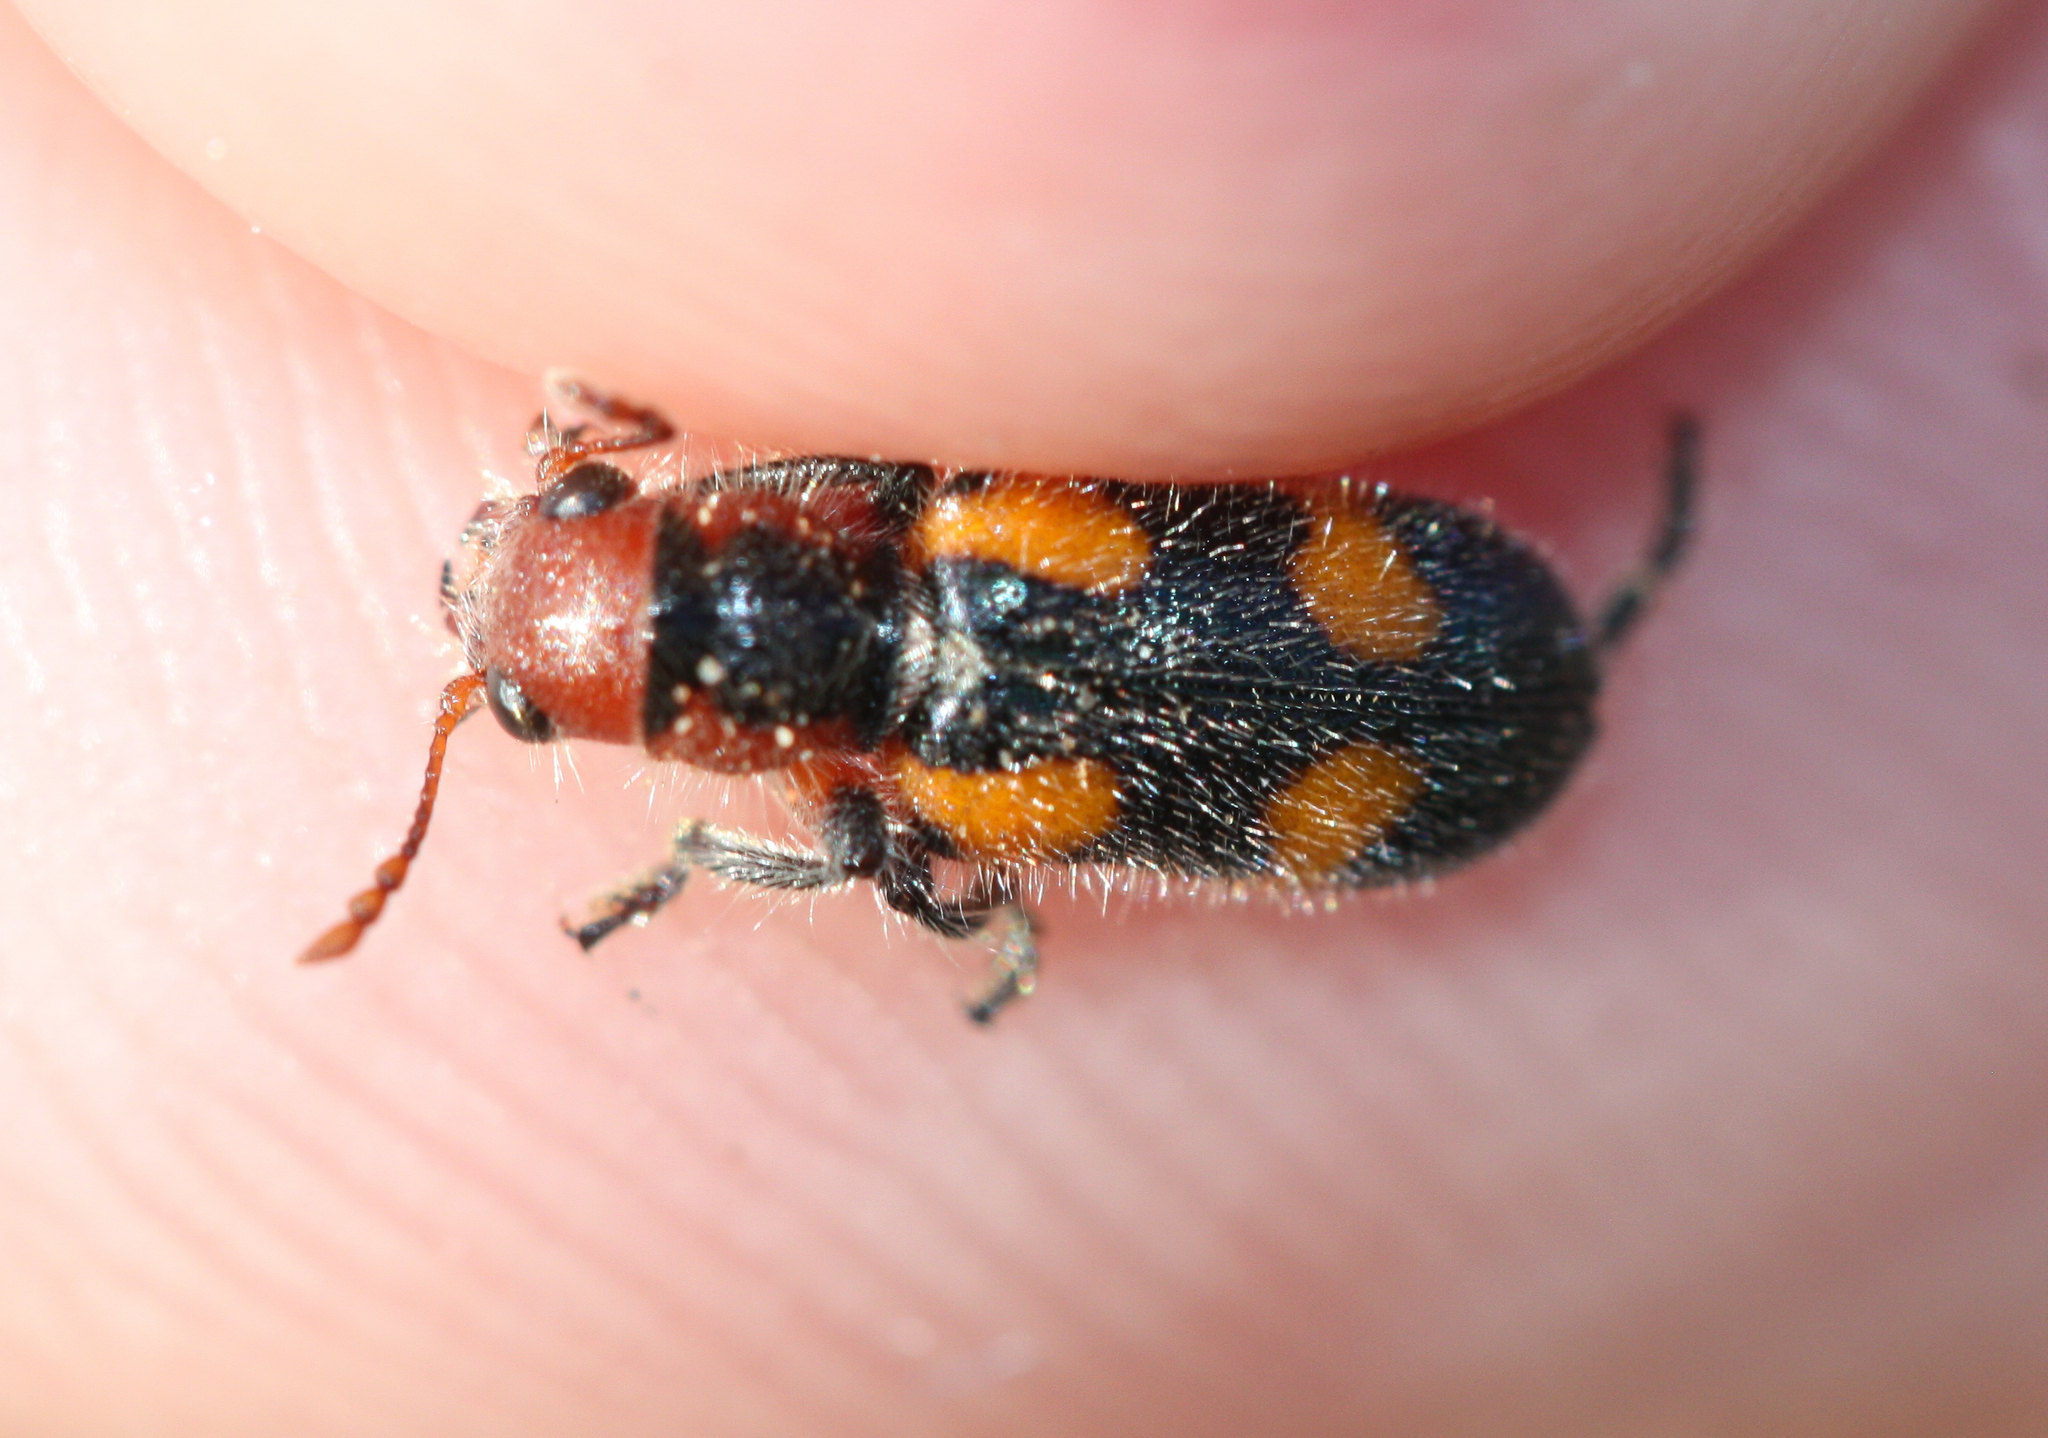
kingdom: Animalia
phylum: Arthropoda
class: Insecta
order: Coleoptera
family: Cleridae
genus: Aulicus
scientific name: Aulicus femoralis
